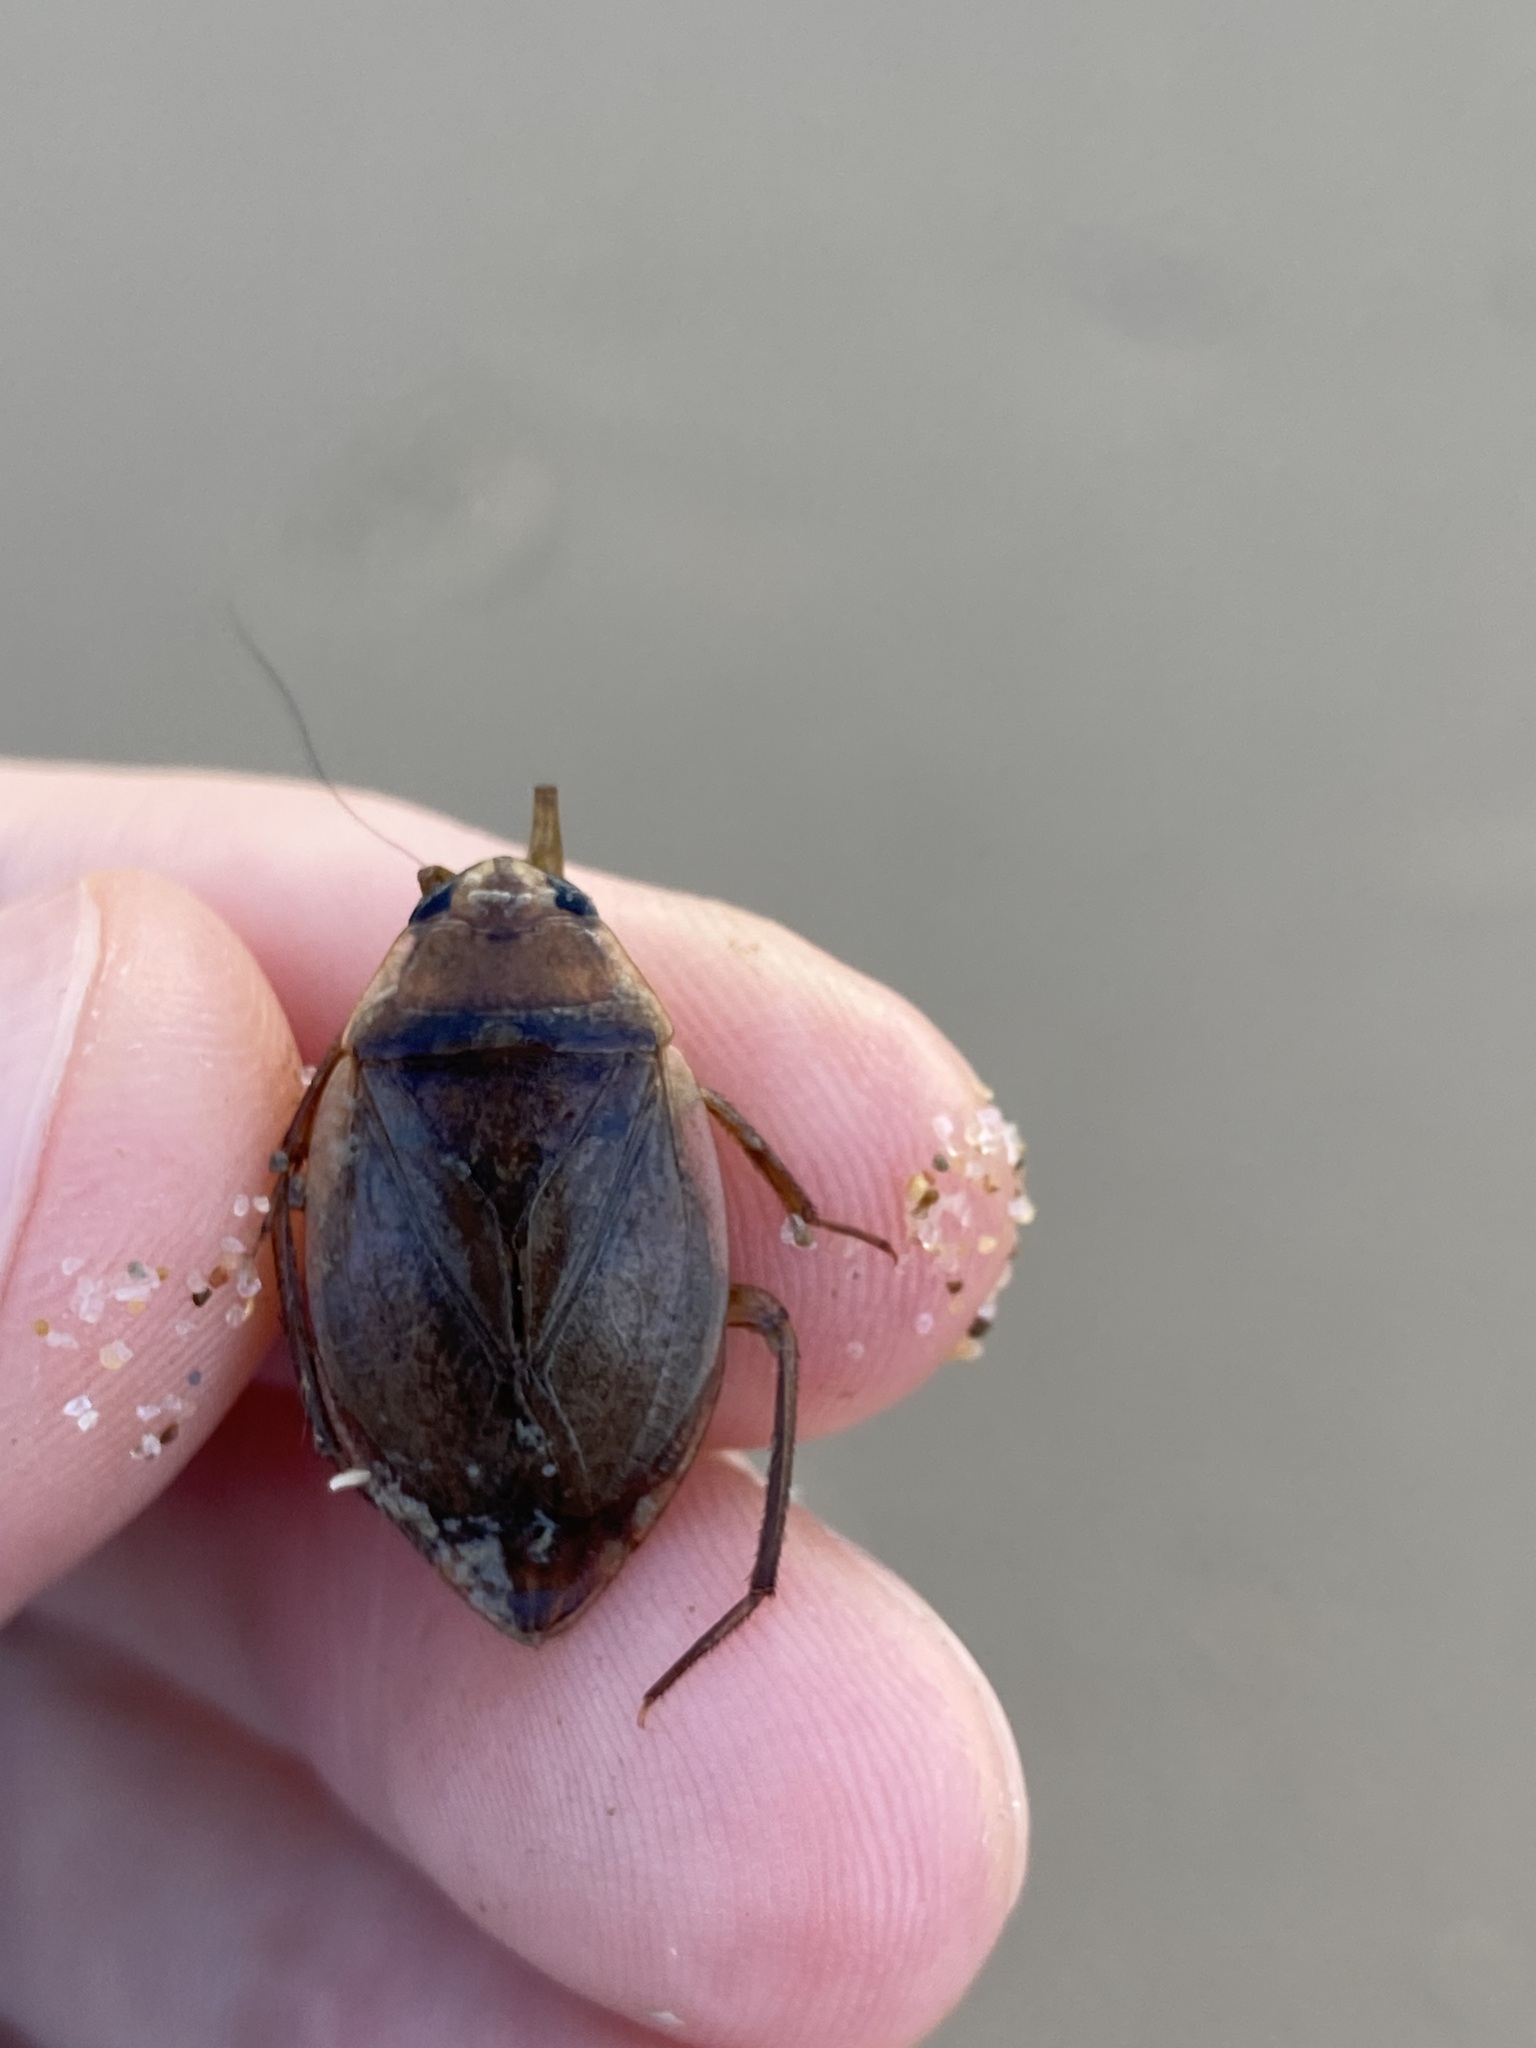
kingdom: Animalia
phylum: Arthropoda
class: Insecta
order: Hemiptera
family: Belostomatidae
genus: Diplonychus
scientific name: Diplonychus eques
